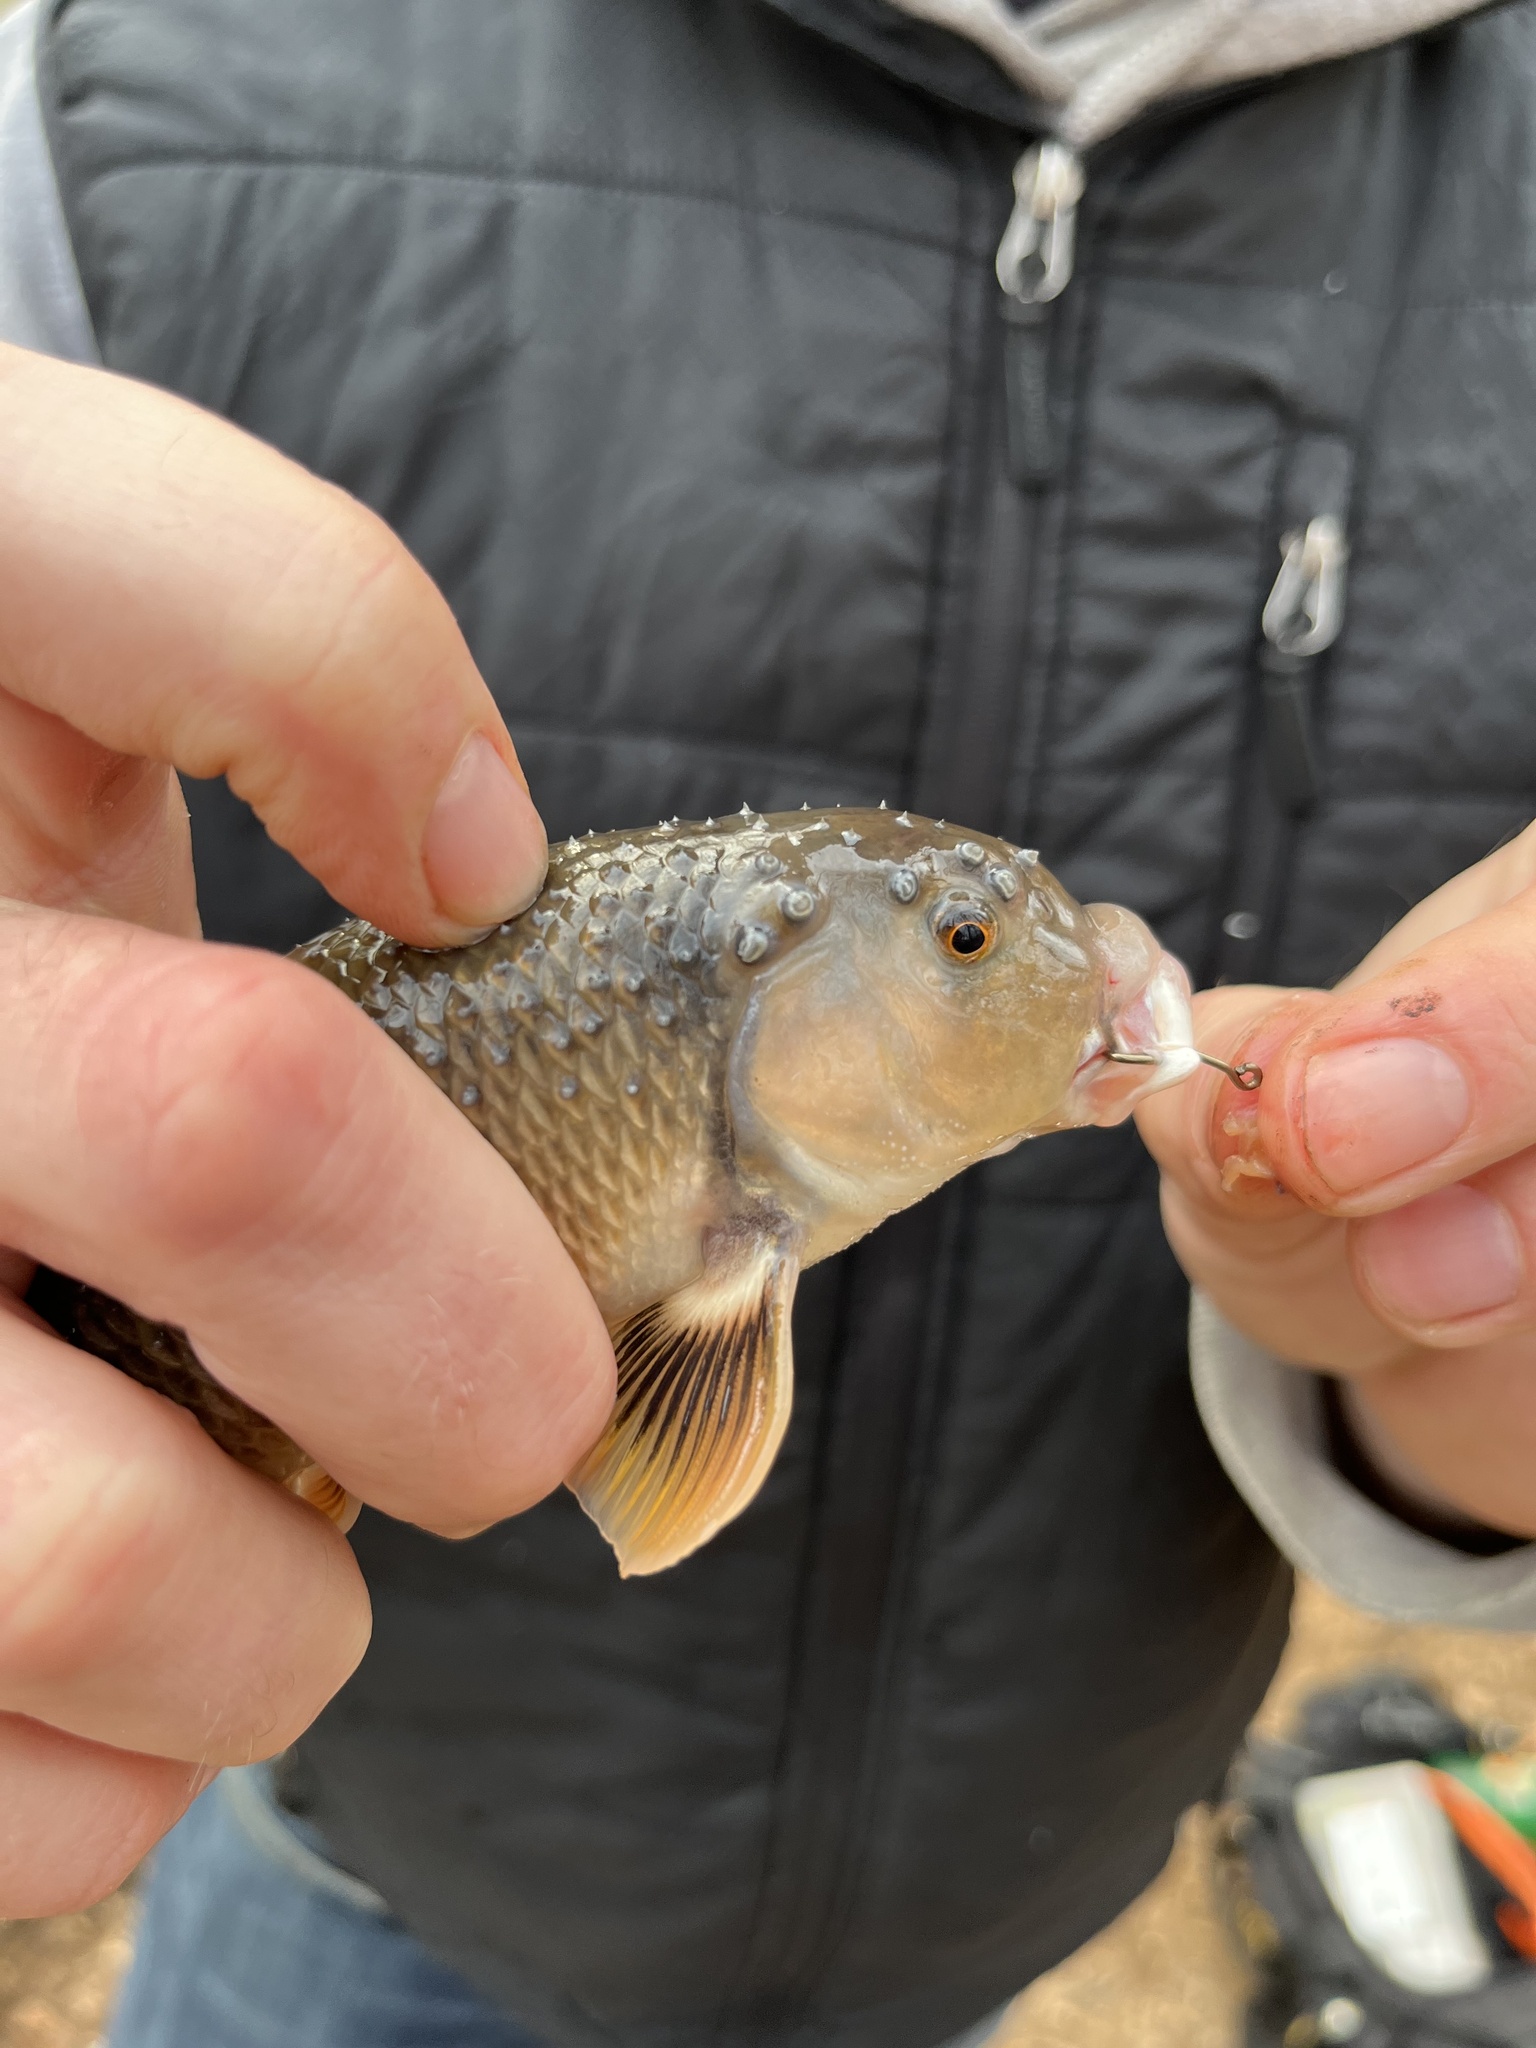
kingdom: Animalia
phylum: Chordata
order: Cypriniformes
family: Cyprinidae
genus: Campostoma
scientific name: Campostoma oligolepis
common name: Largescale stoneroller
